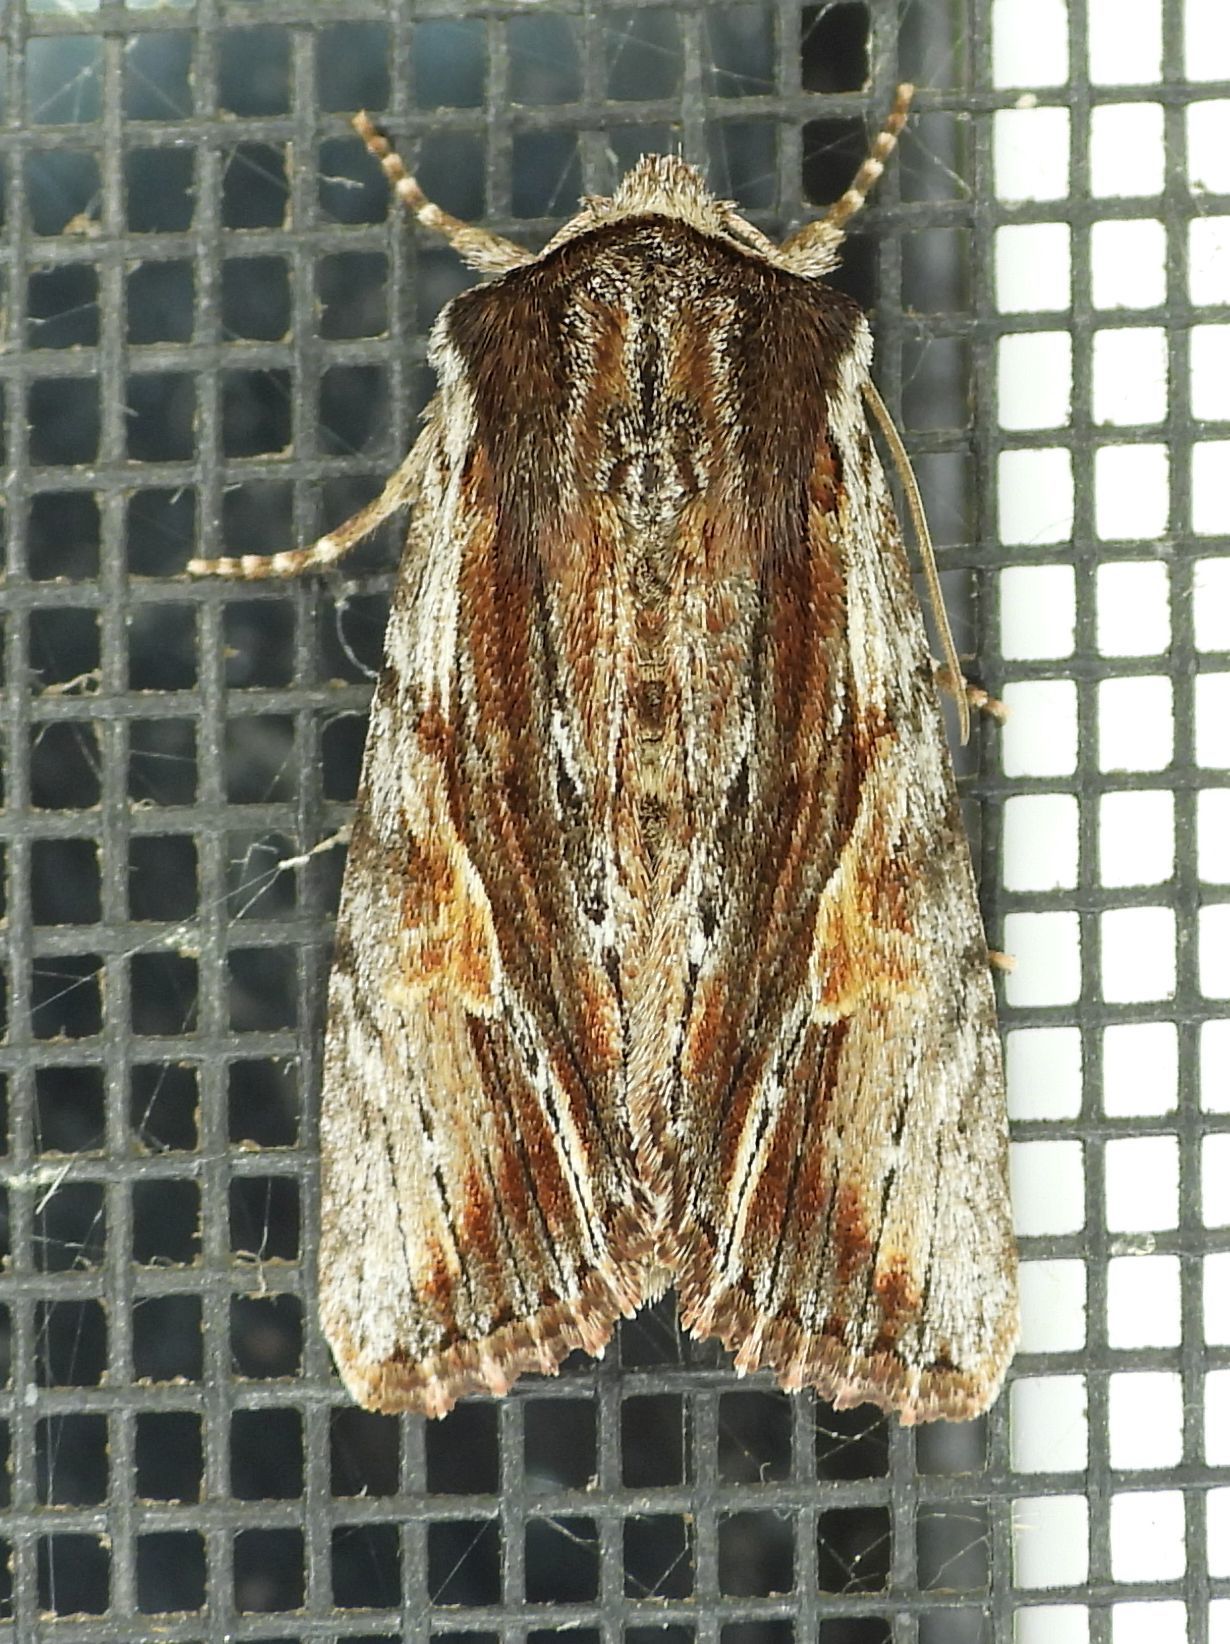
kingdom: Animalia
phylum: Arthropoda
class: Insecta
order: Lepidoptera
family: Noctuidae
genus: Achatia
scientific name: Achatia evicta
